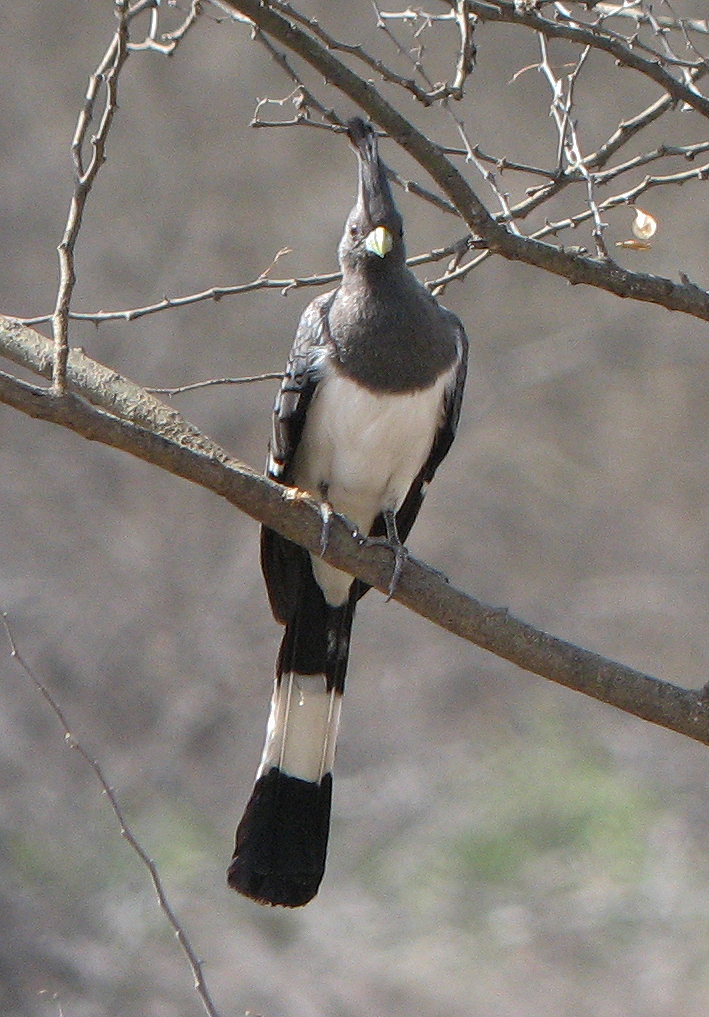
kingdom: Animalia
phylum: Chordata
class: Aves
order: Musophagiformes
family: Musophagidae
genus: Corythaixoides
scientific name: Corythaixoides leucogaster
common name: White-bellied go-away-bird
